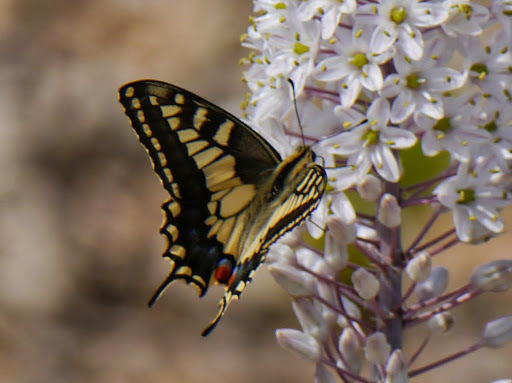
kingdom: Animalia
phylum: Arthropoda
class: Insecta
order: Lepidoptera
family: Papilionidae
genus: Papilio
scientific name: Papilio machaon
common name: Swallowtail
